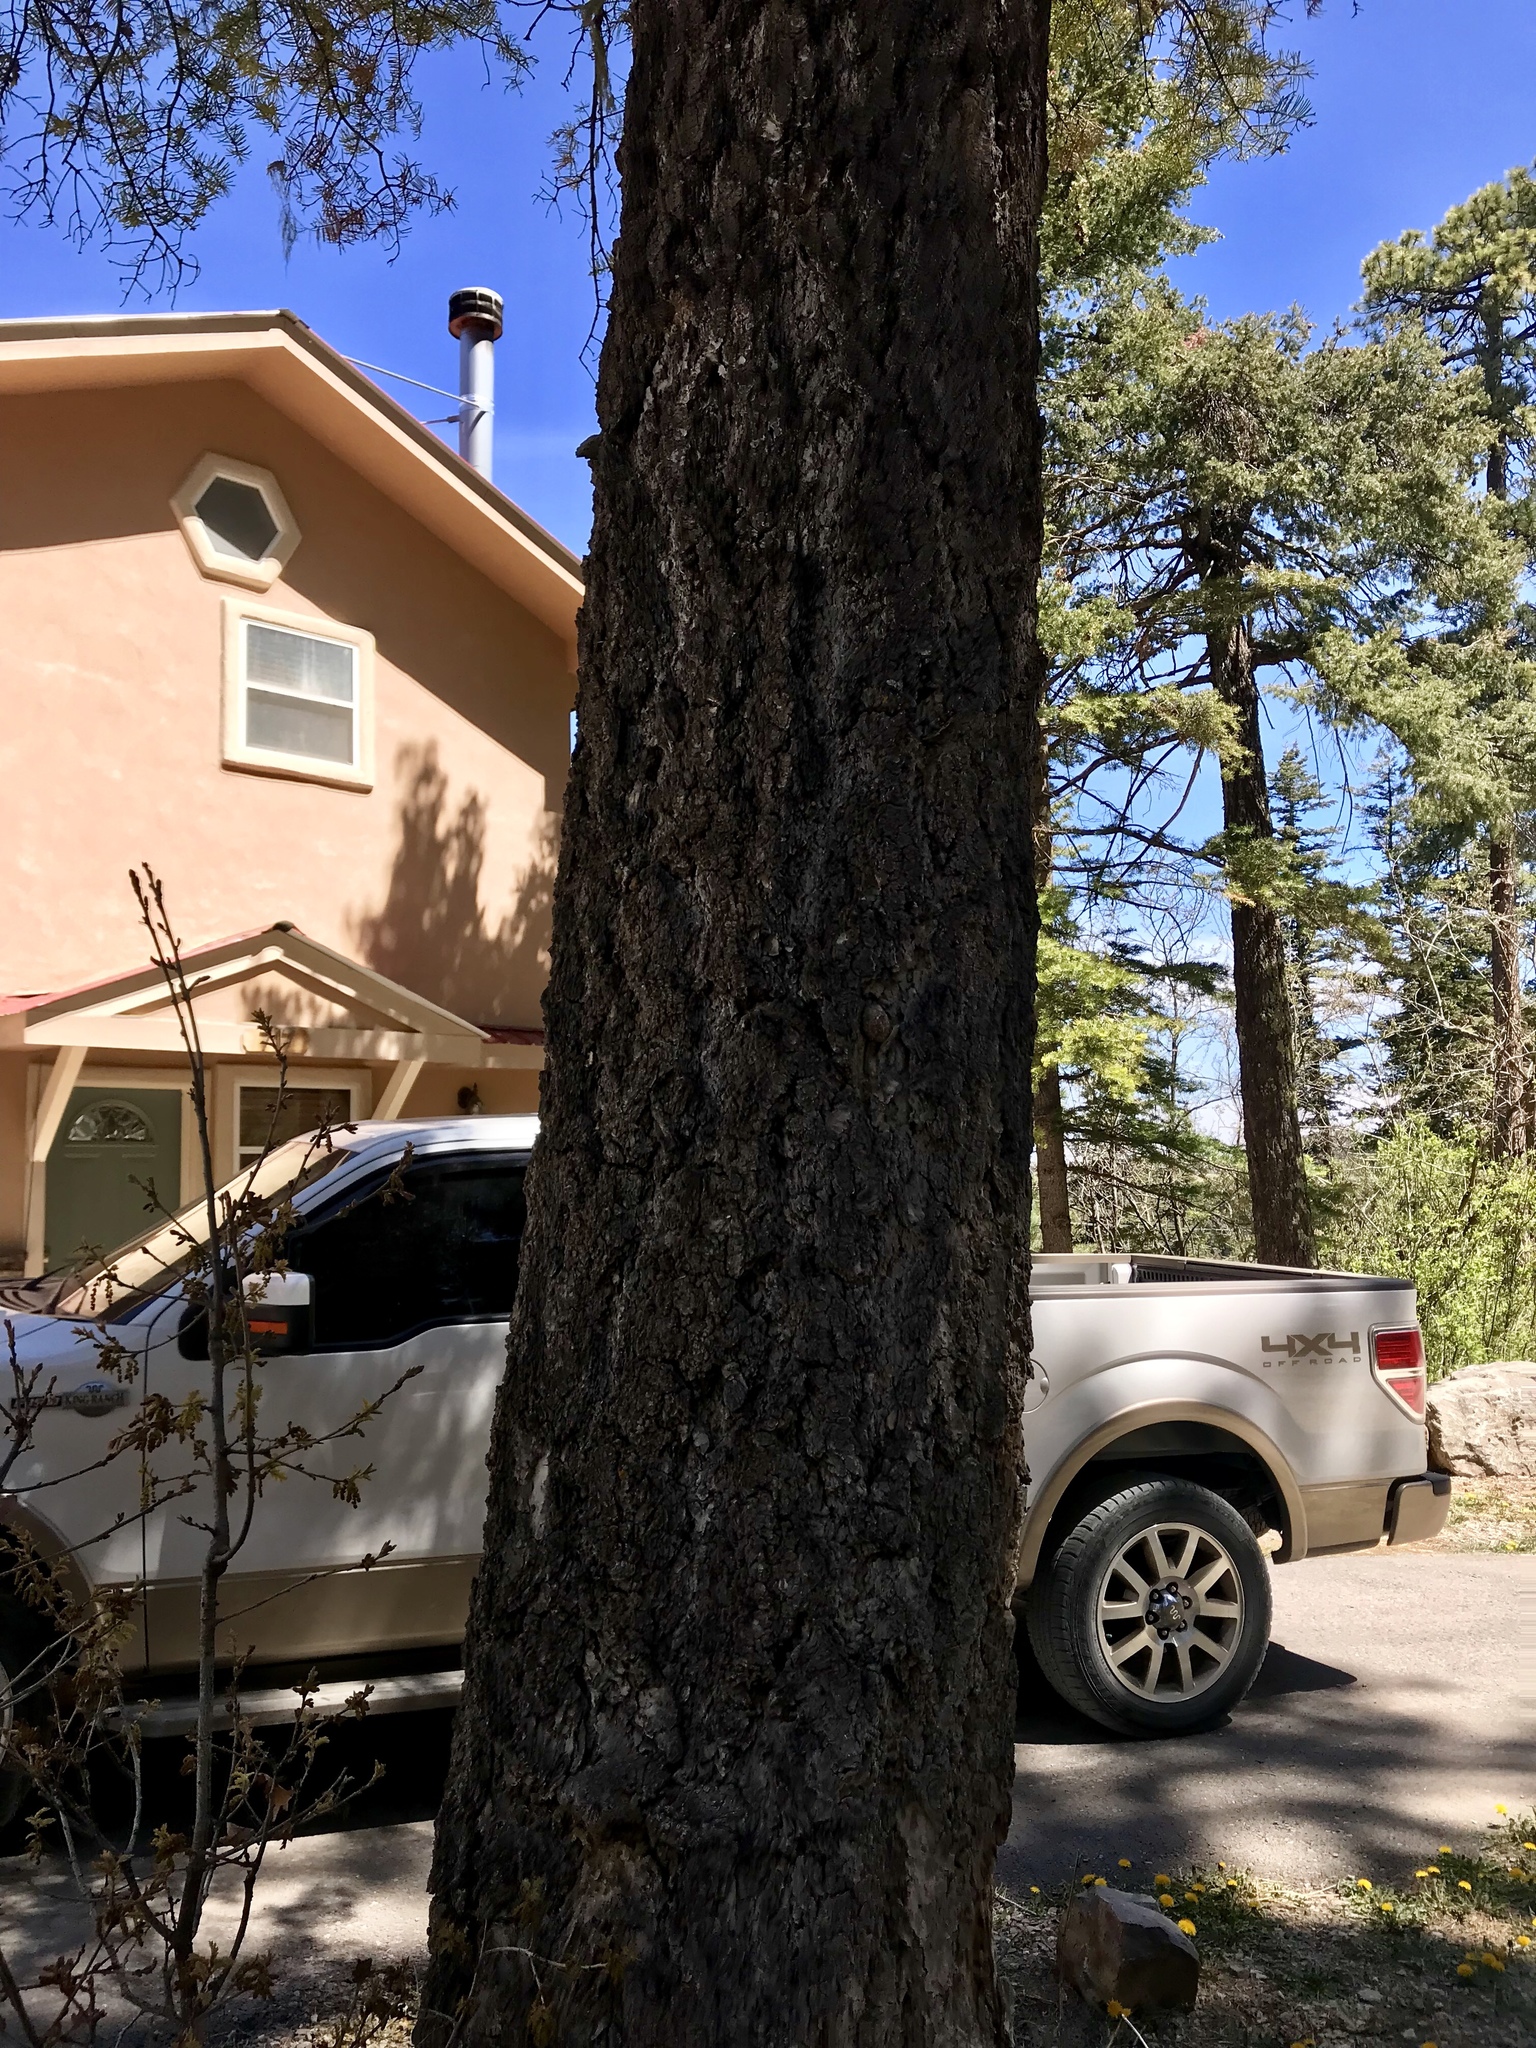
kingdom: Plantae
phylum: Tracheophyta
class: Pinopsida
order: Pinales
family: Pinaceae
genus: Pseudotsuga
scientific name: Pseudotsuga menziesii
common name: Douglas fir
